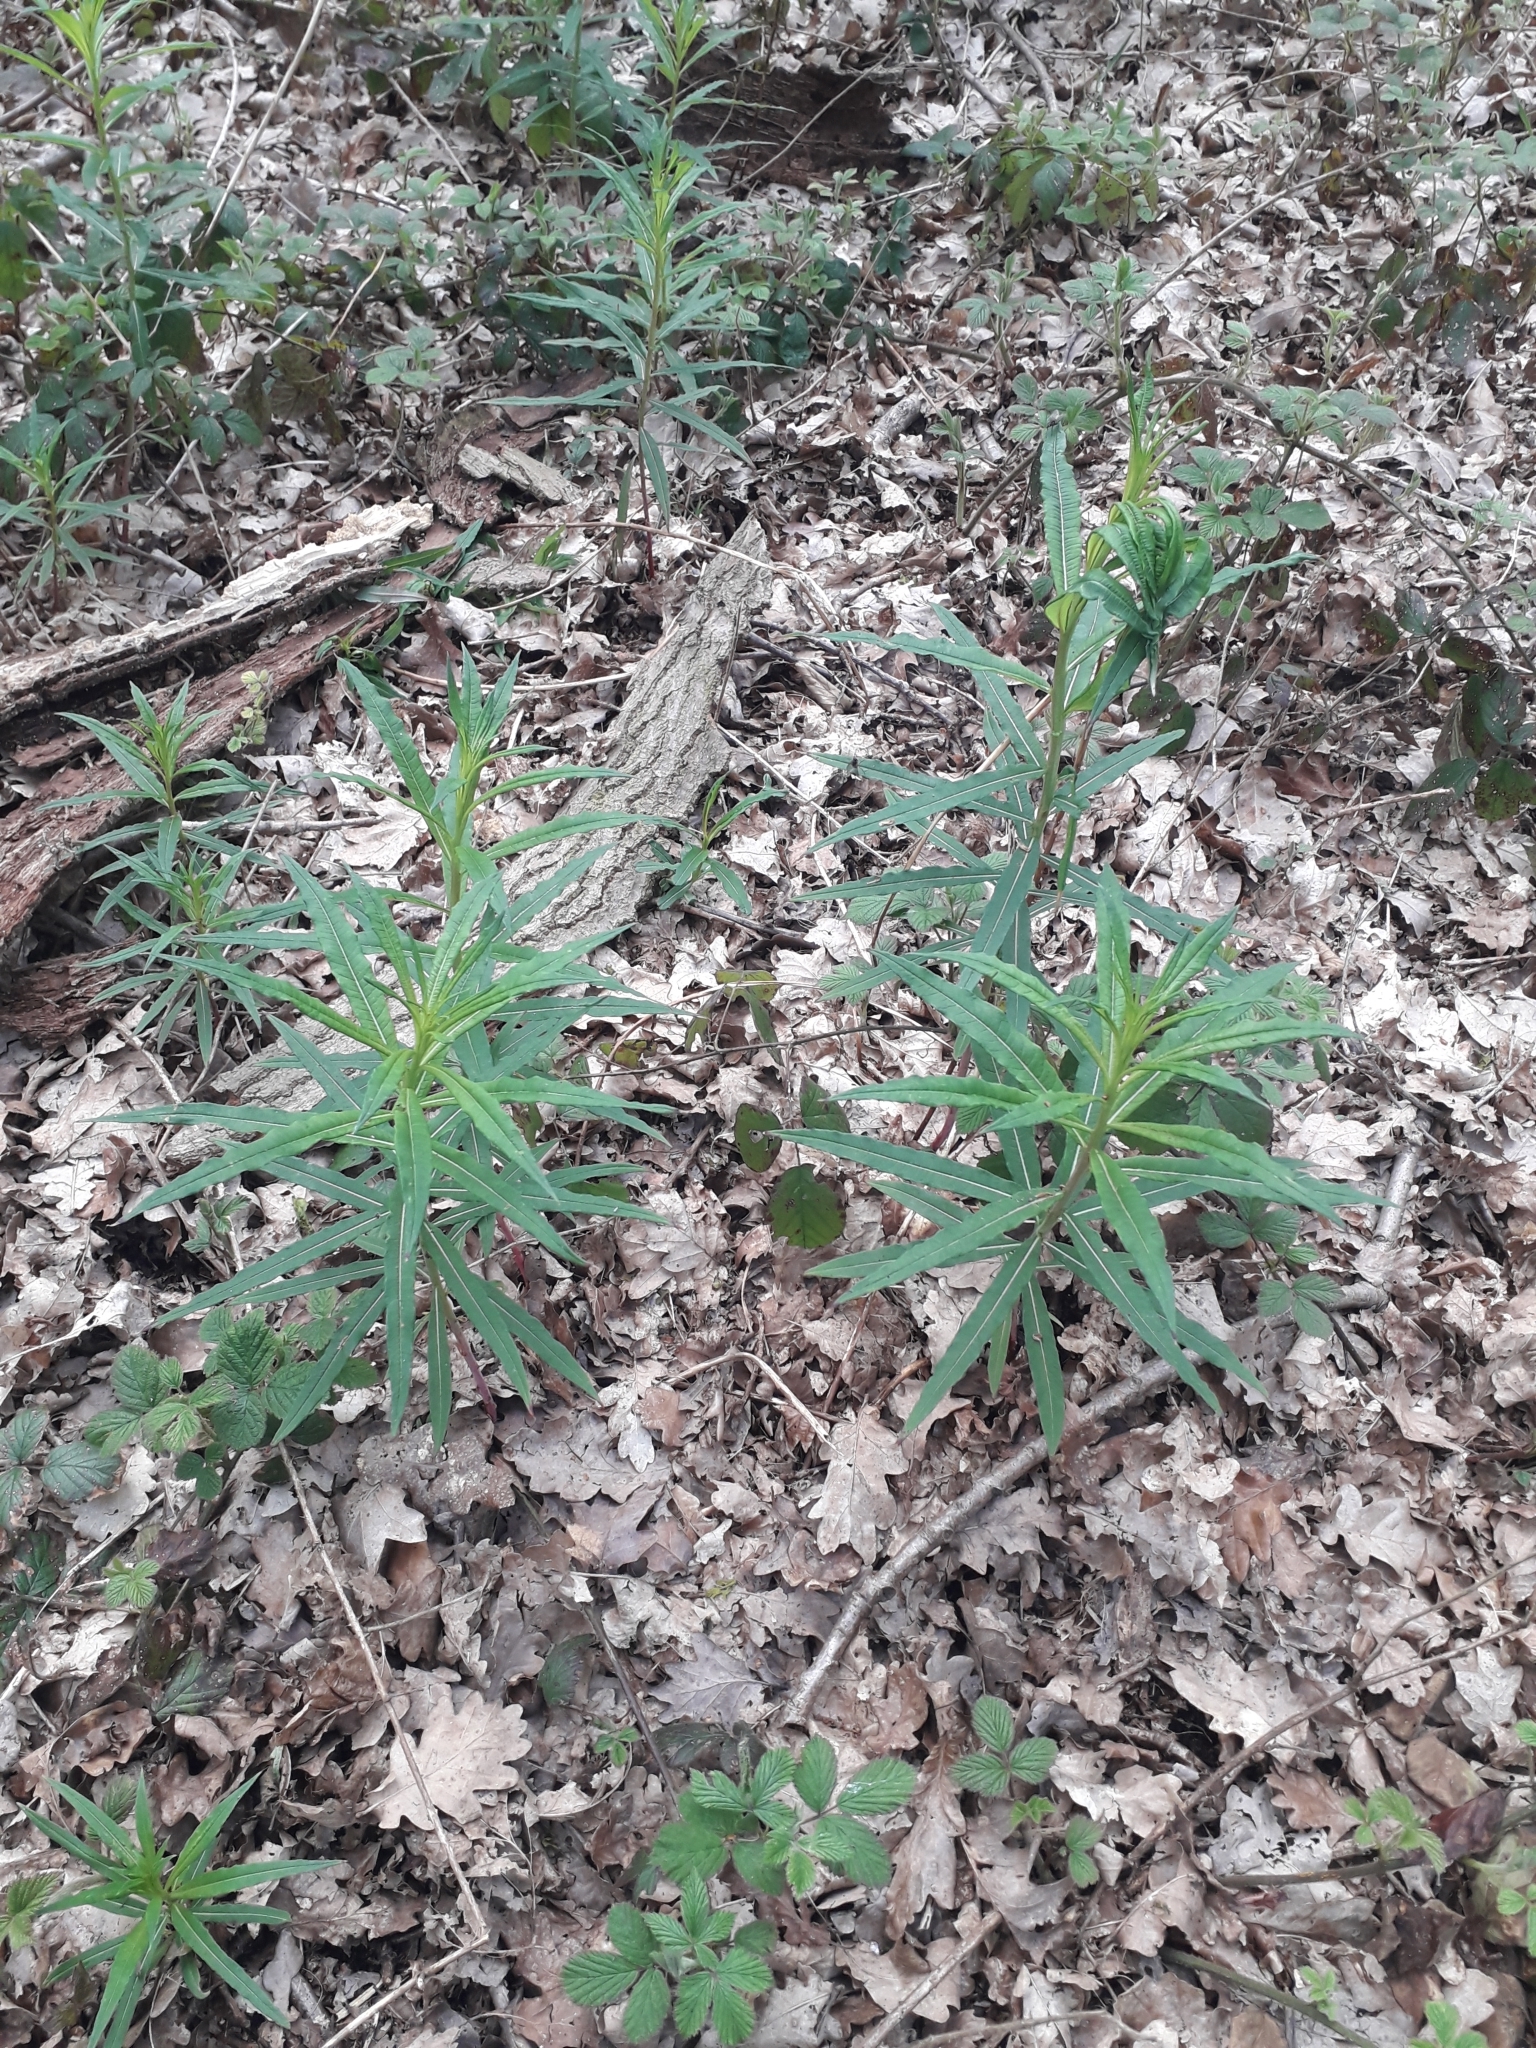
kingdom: Plantae
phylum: Tracheophyta
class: Magnoliopsida
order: Myrtales
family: Onagraceae
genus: Chamaenerion
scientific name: Chamaenerion angustifolium
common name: Fireweed
